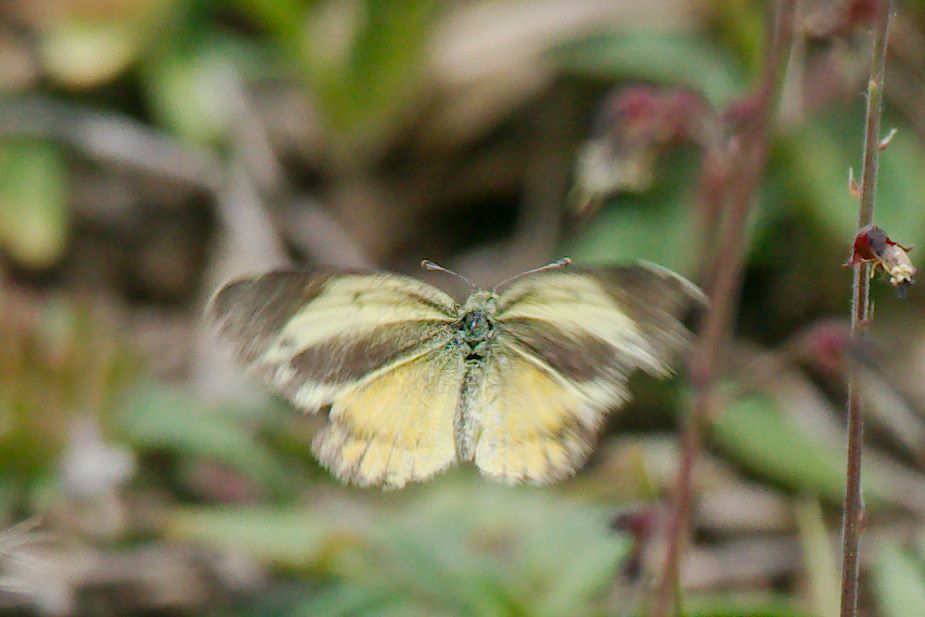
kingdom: Animalia
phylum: Arthropoda
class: Insecta
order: Lepidoptera
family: Pieridae
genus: Nathalis
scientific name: Nathalis iole
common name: Dainty sulphur
